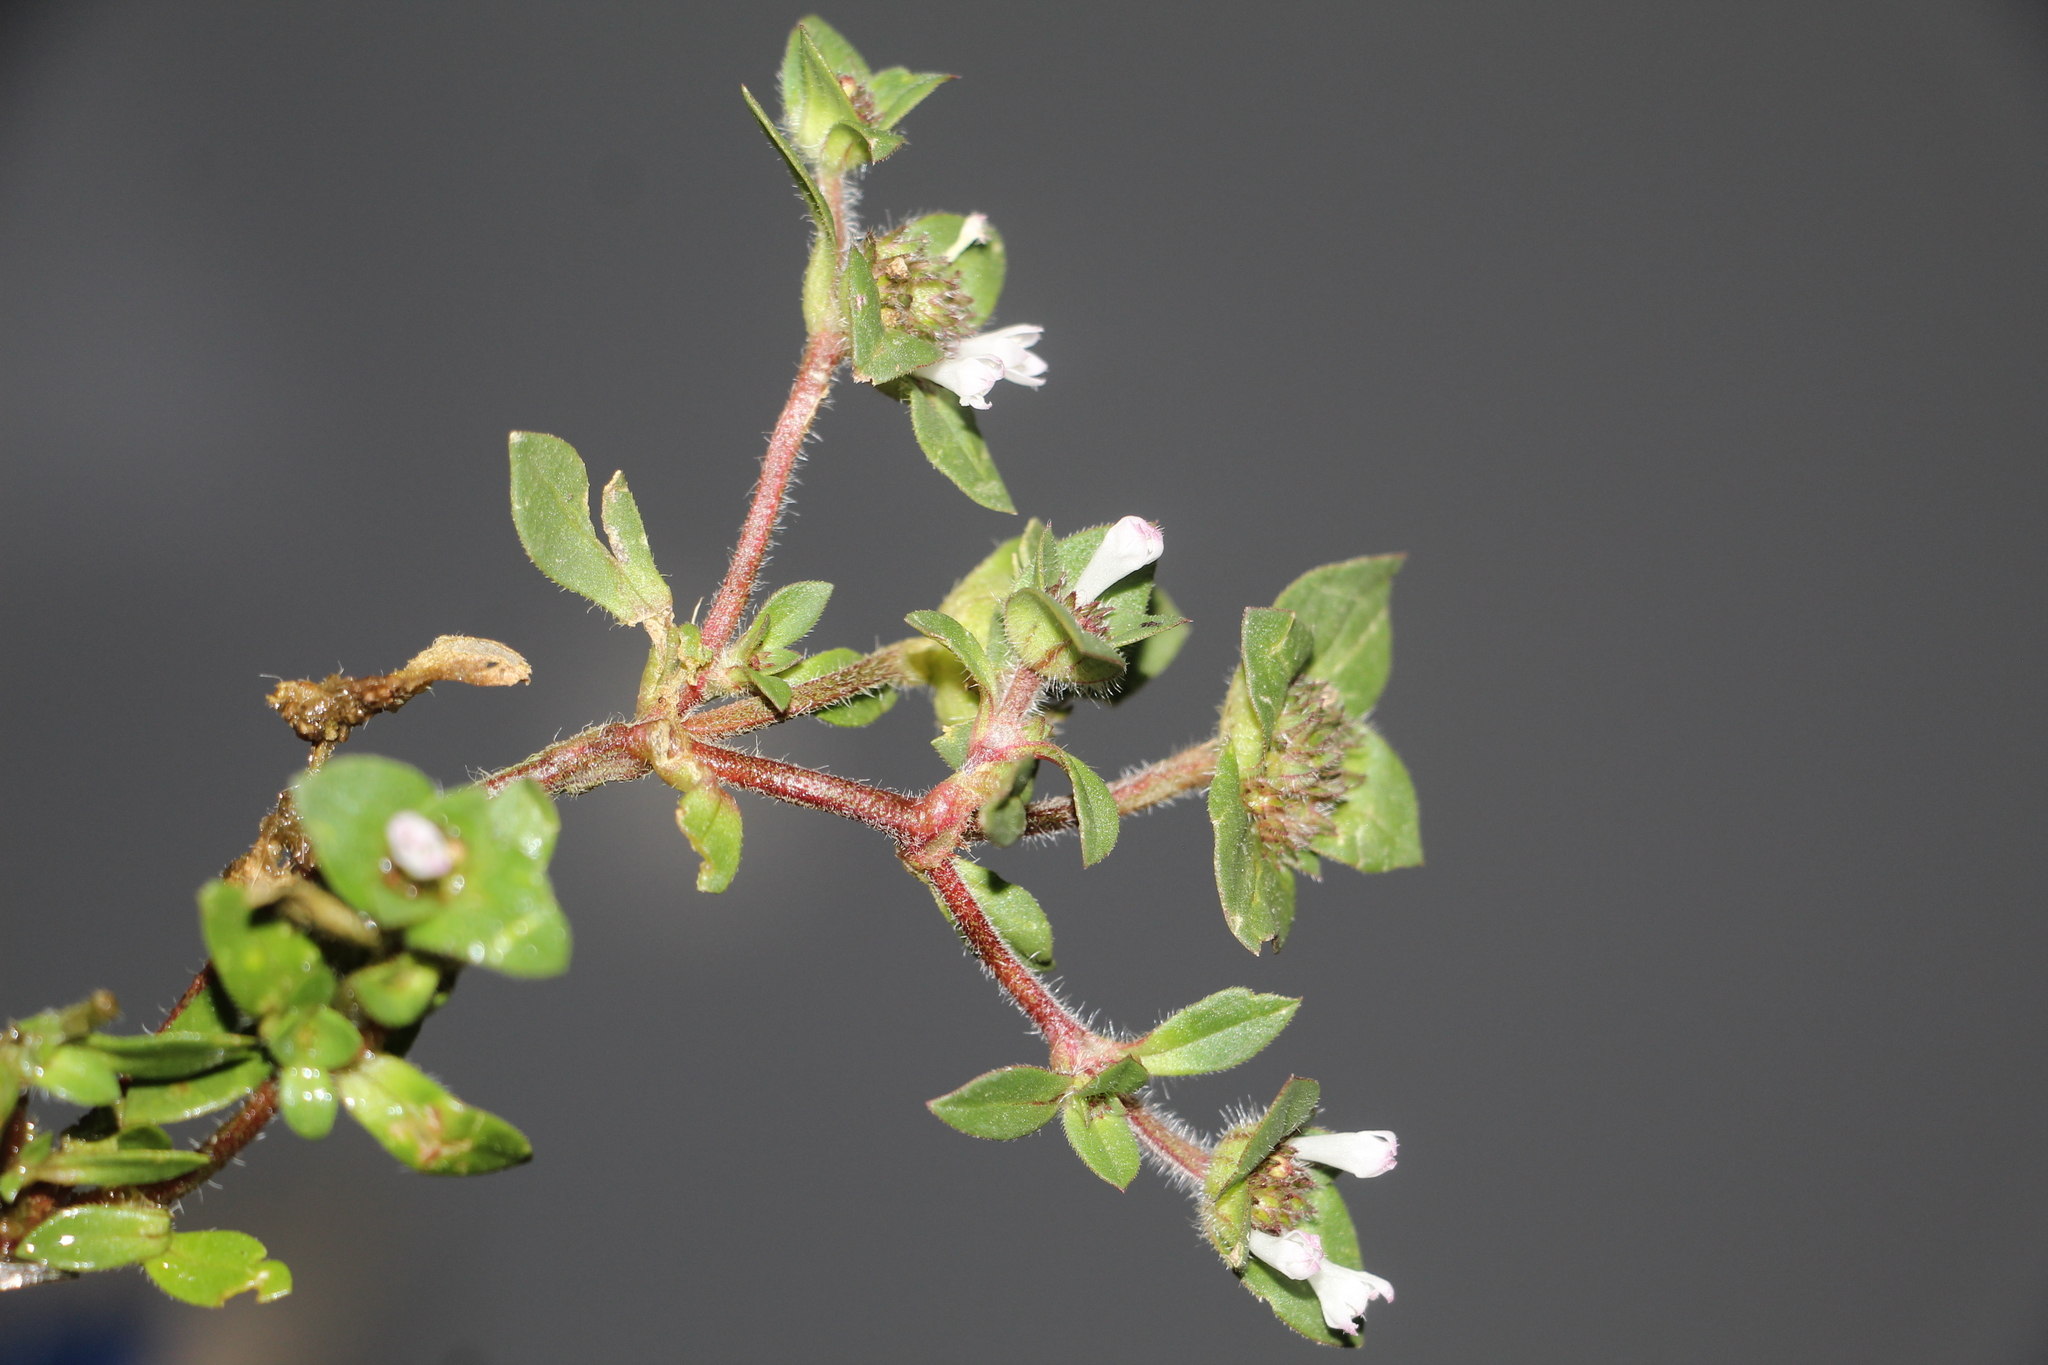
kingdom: Plantae
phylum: Tracheophyta
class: Magnoliopsida
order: Gentianales
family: Rubiaceae
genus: Richardia
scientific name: Richardia scabra
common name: Rough mexican clover
